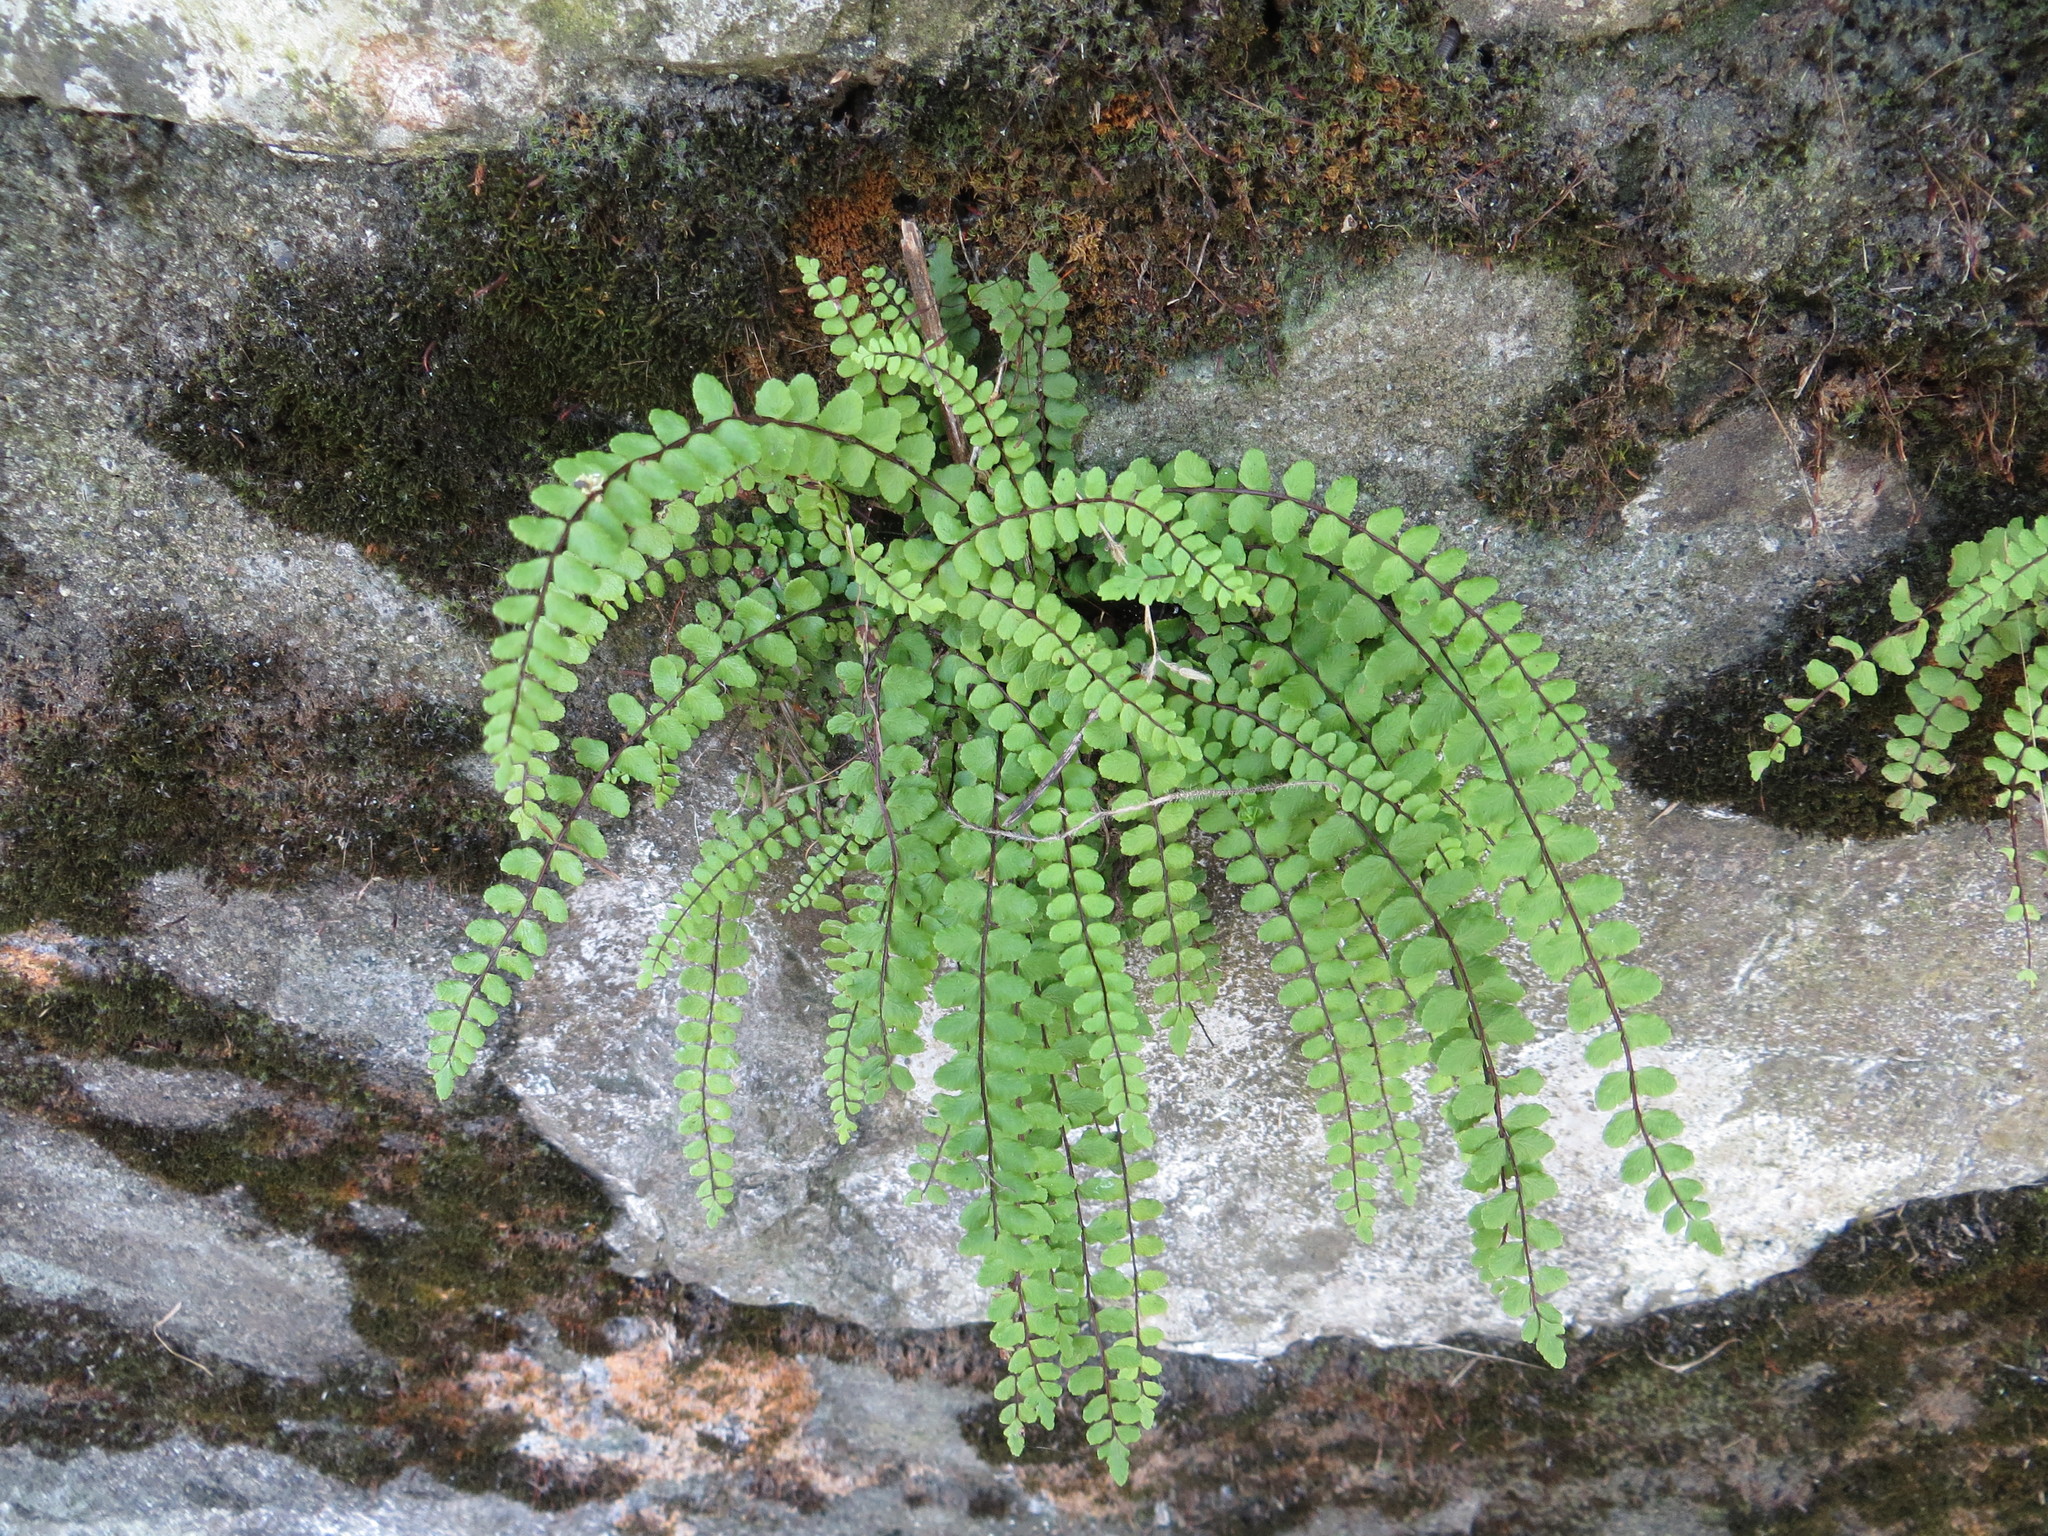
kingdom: Plantae
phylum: Tracheophyta
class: Polypodiopsida
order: Polypodiales
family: Aspleniaceae
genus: Asplenium
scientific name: Asplenium trichomanes
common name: Maidenhair spleenwort
